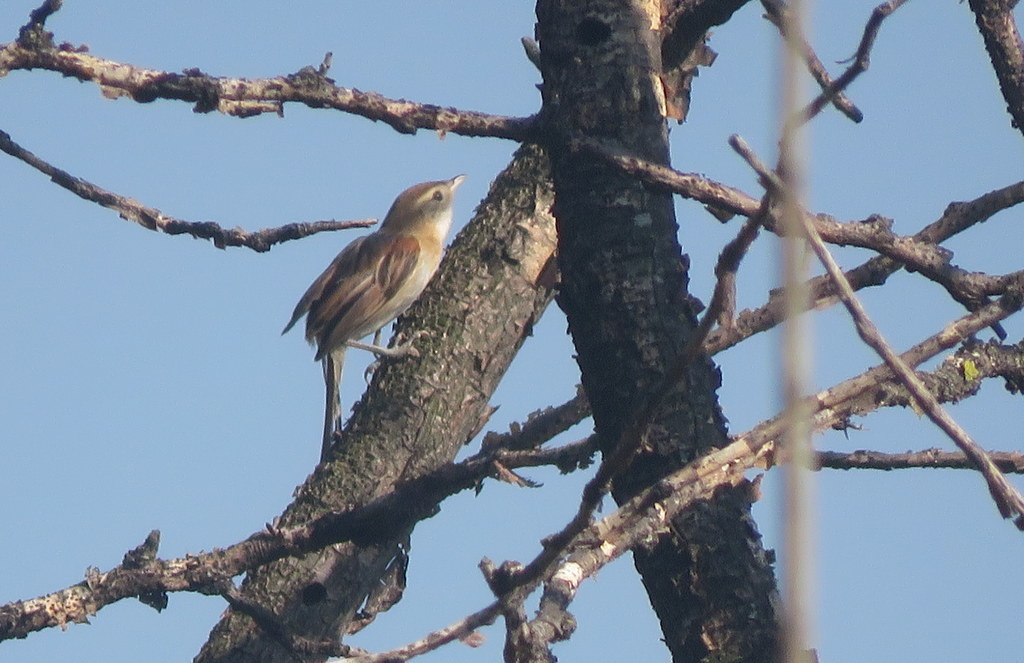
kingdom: Animalia
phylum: Chordata
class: Aves
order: Passeriformes
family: Furnariidae
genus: Schoeniophylax
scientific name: Schoeniophylax phryganophilus
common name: Chotoy spinetail
